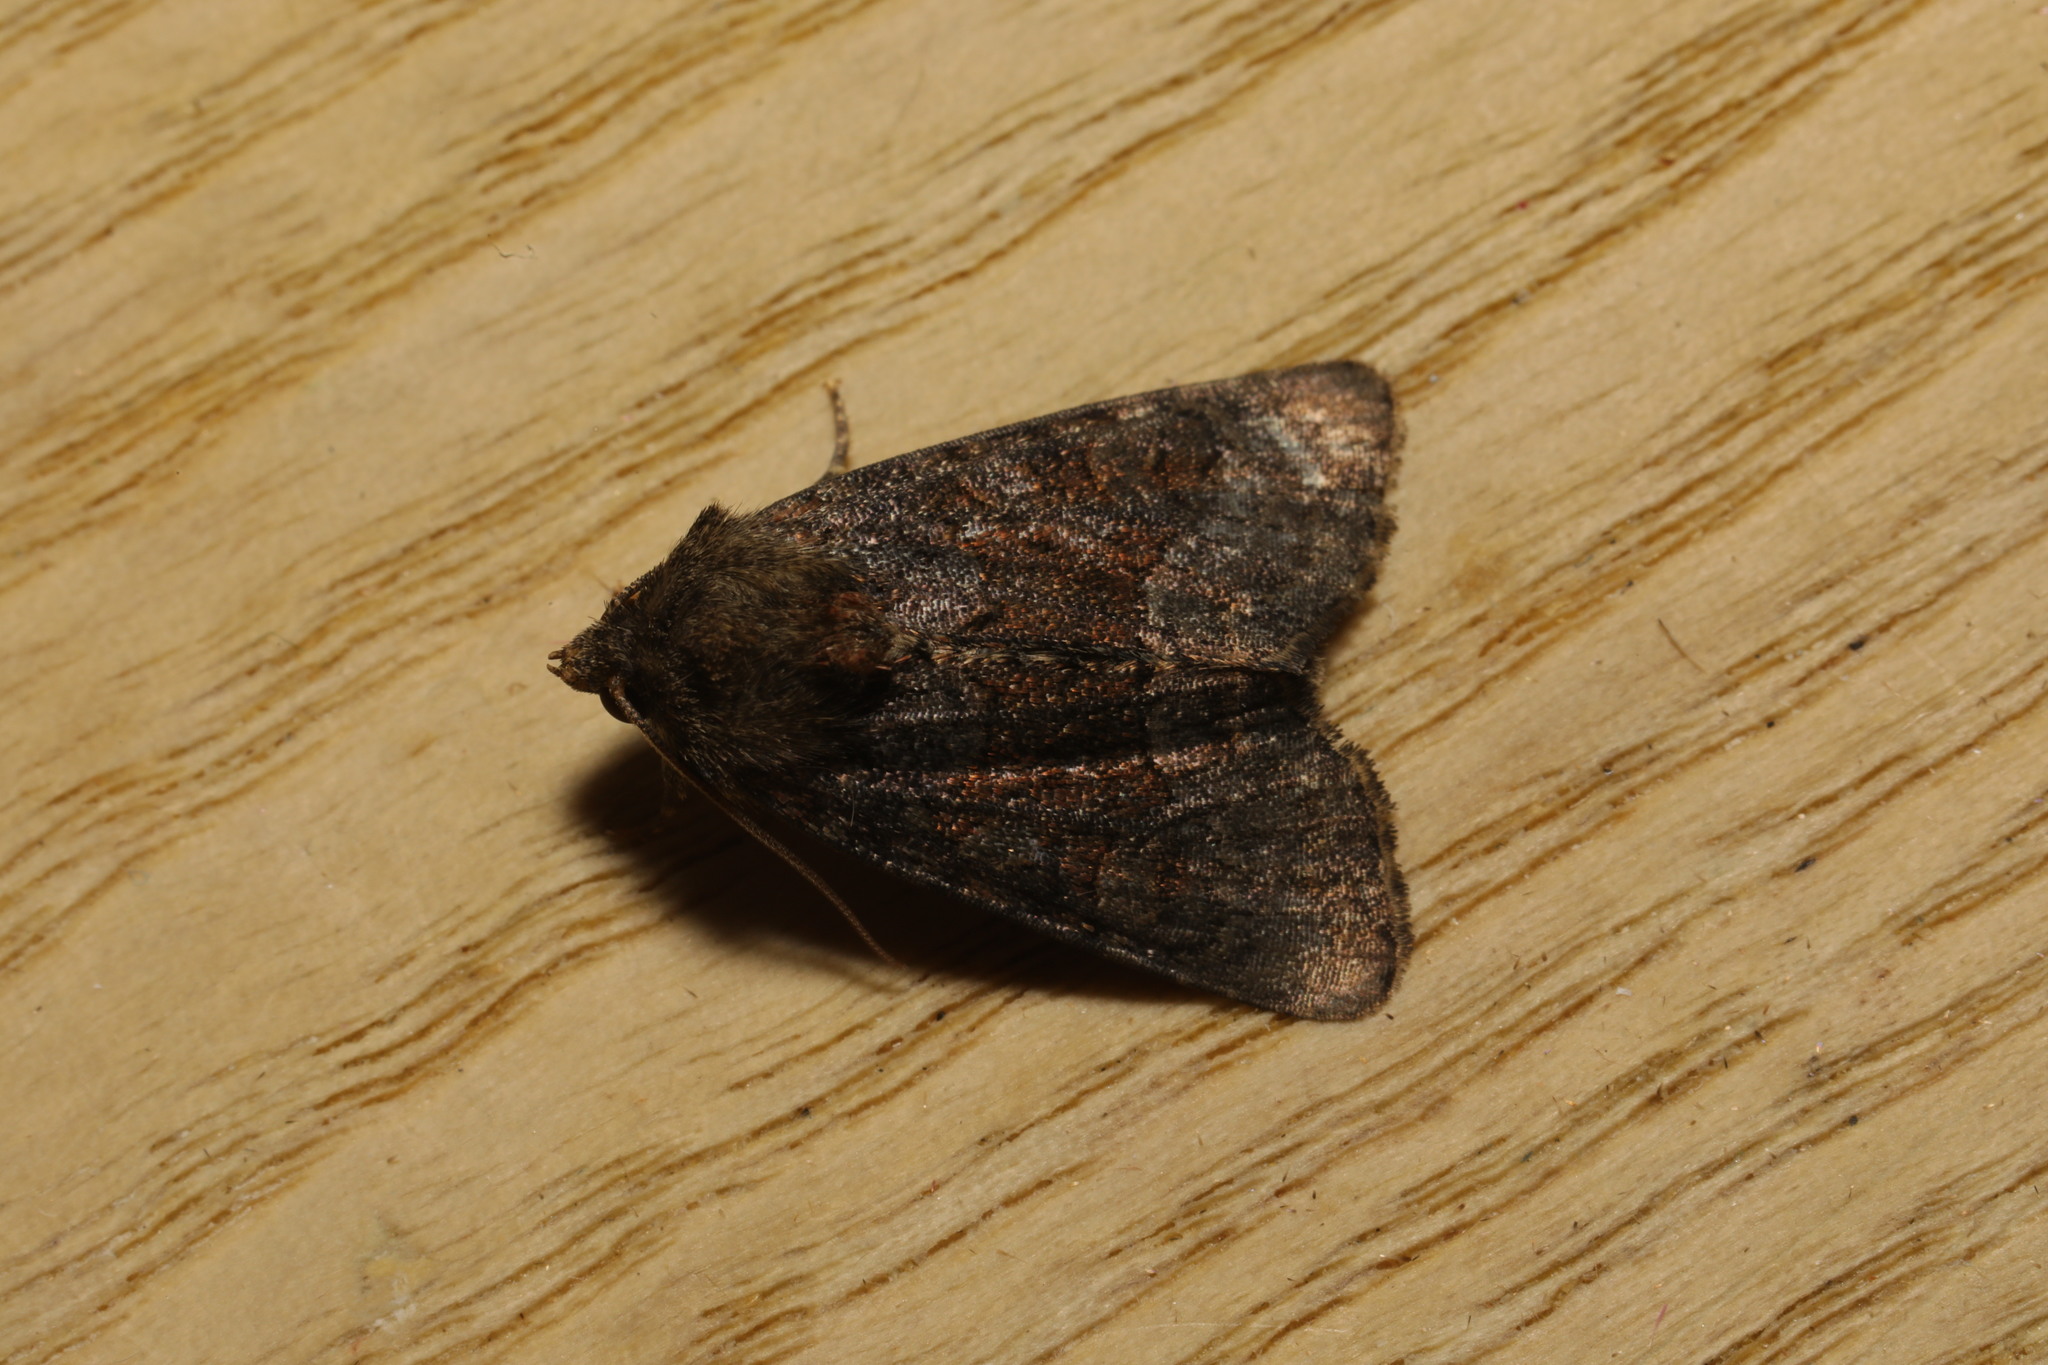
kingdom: Animalia
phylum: Arthropoda
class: Insecta
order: Lepidoptera
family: Noctuidae
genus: Oligia
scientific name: Oligia
